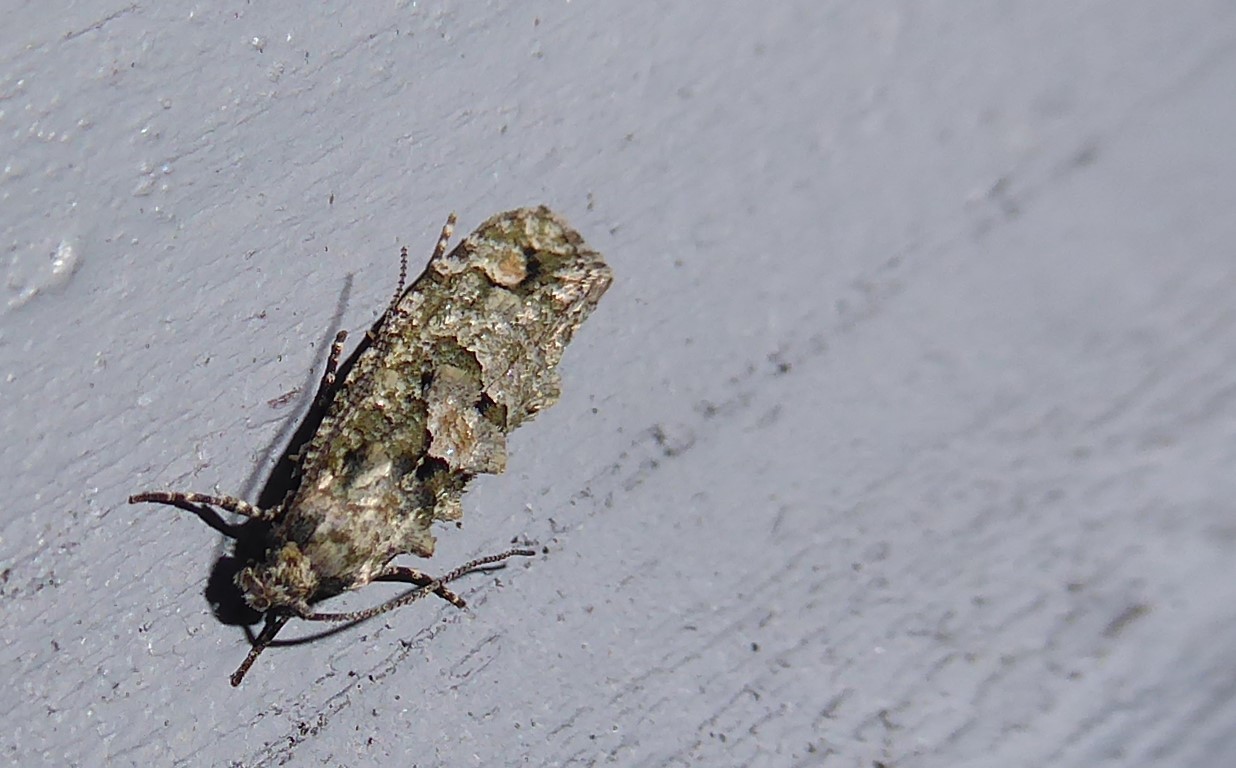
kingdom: Animalia
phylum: Arthropoda
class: Insecta
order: Lepidoptera
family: Tineidae
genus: Lysiphragma
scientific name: Lysiphragma howesii
